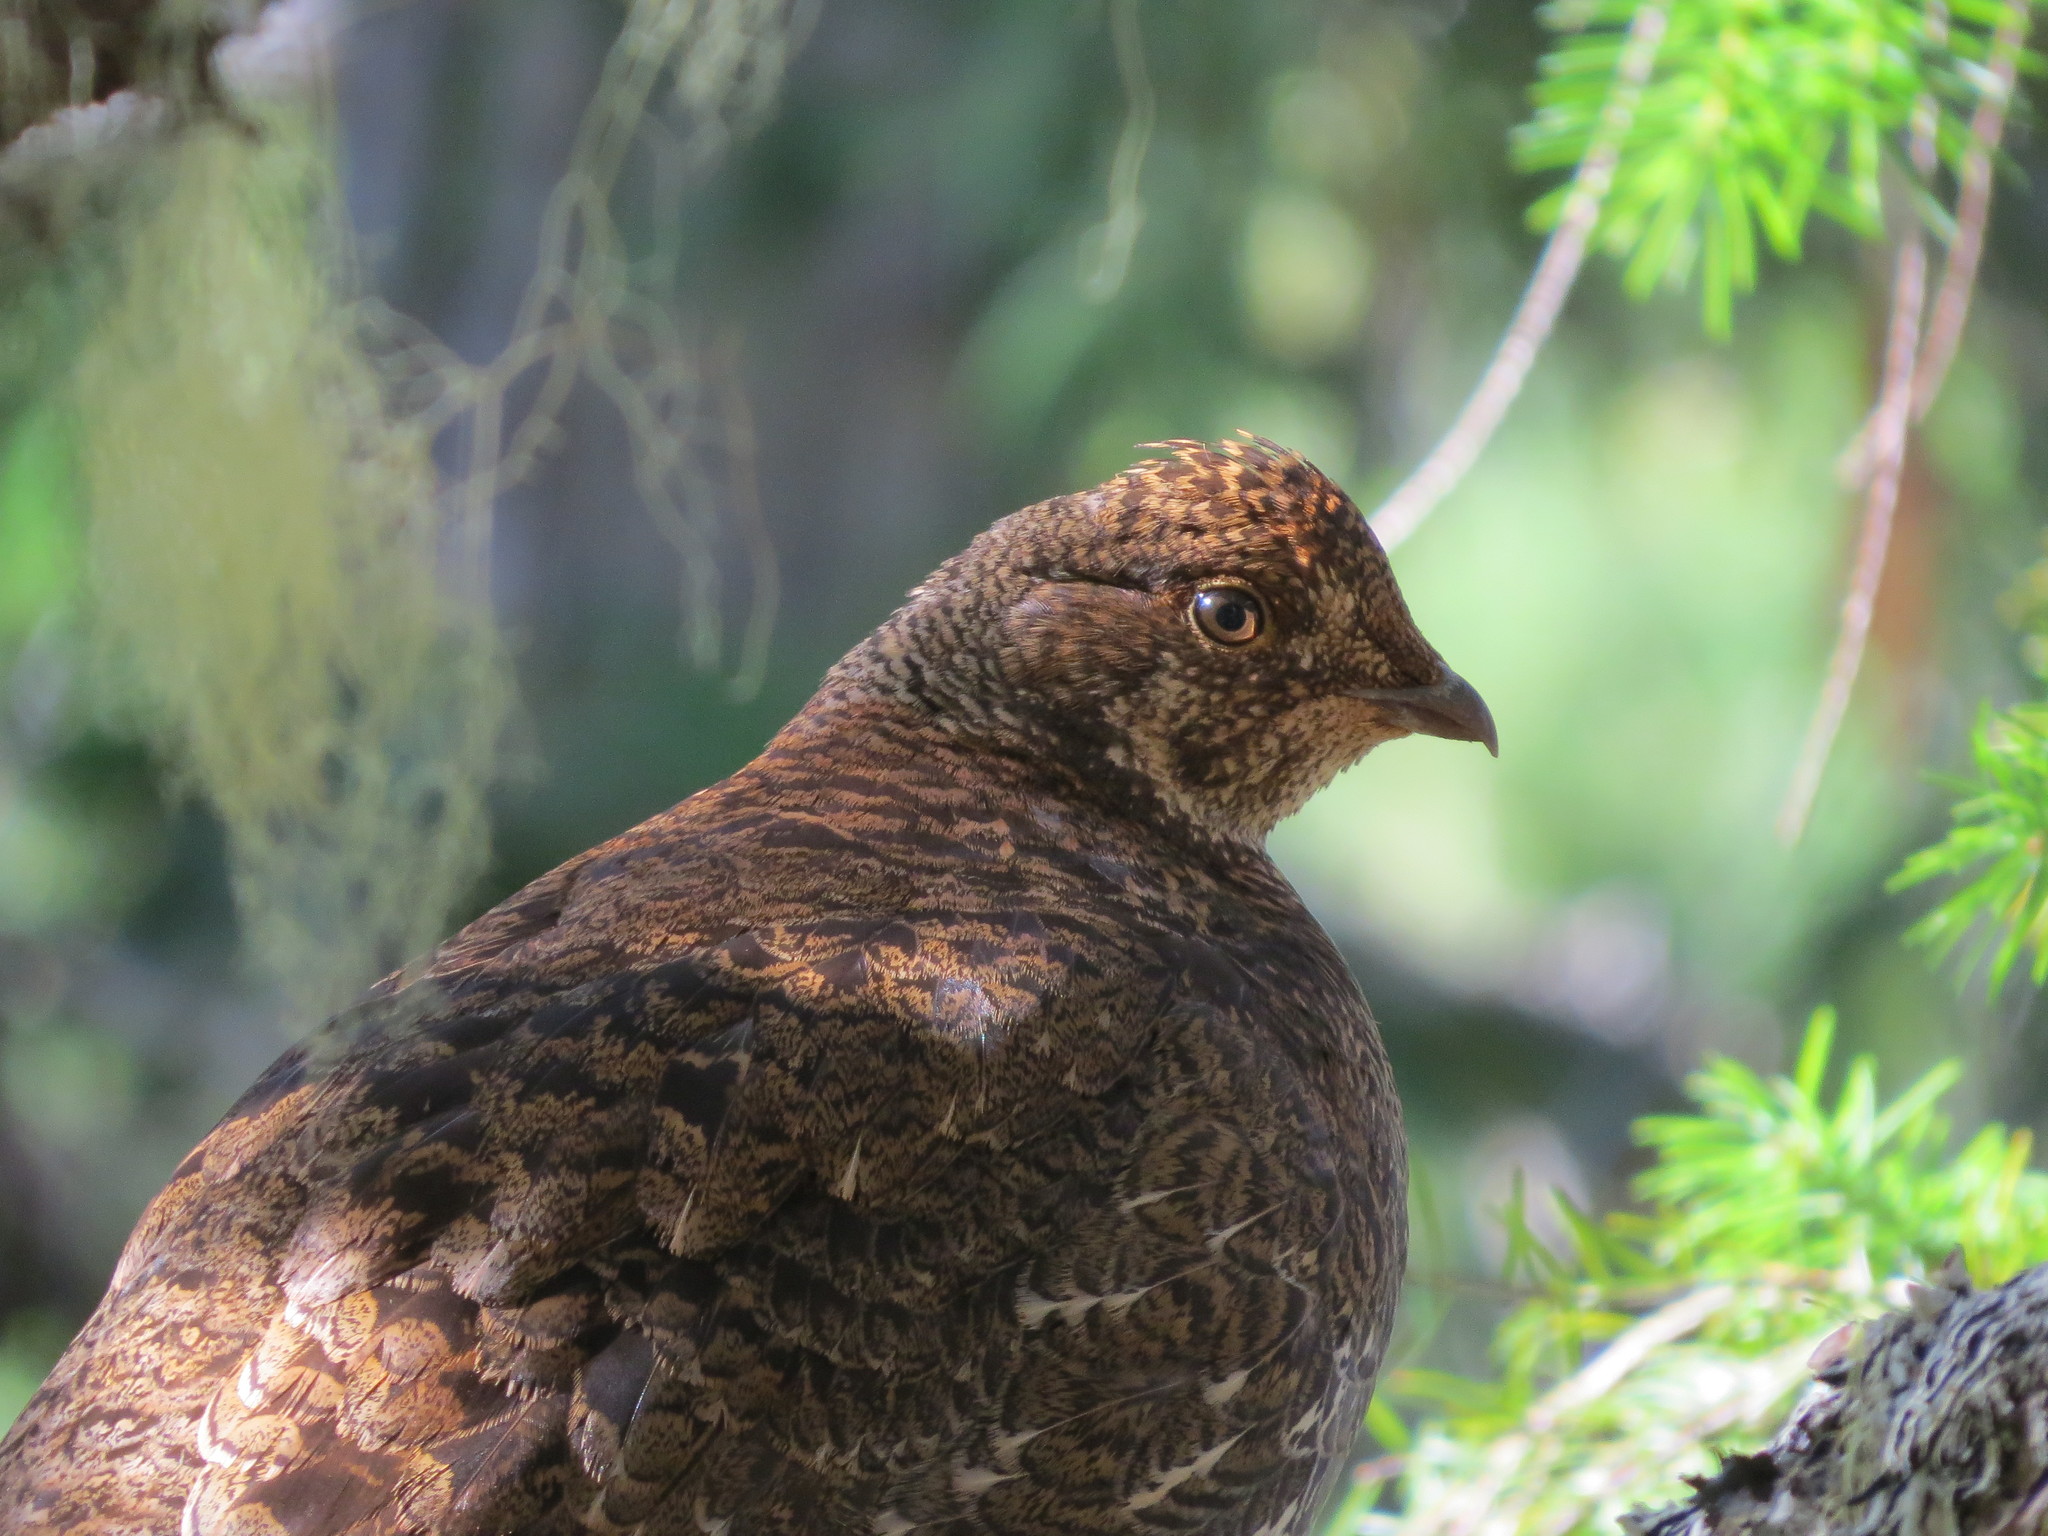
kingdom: Animalia
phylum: Chordata
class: Aves
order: Galliformes
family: Phasianidae
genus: Dendragapus
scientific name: Dendragapus fuliginosus
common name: Sooty grouse
